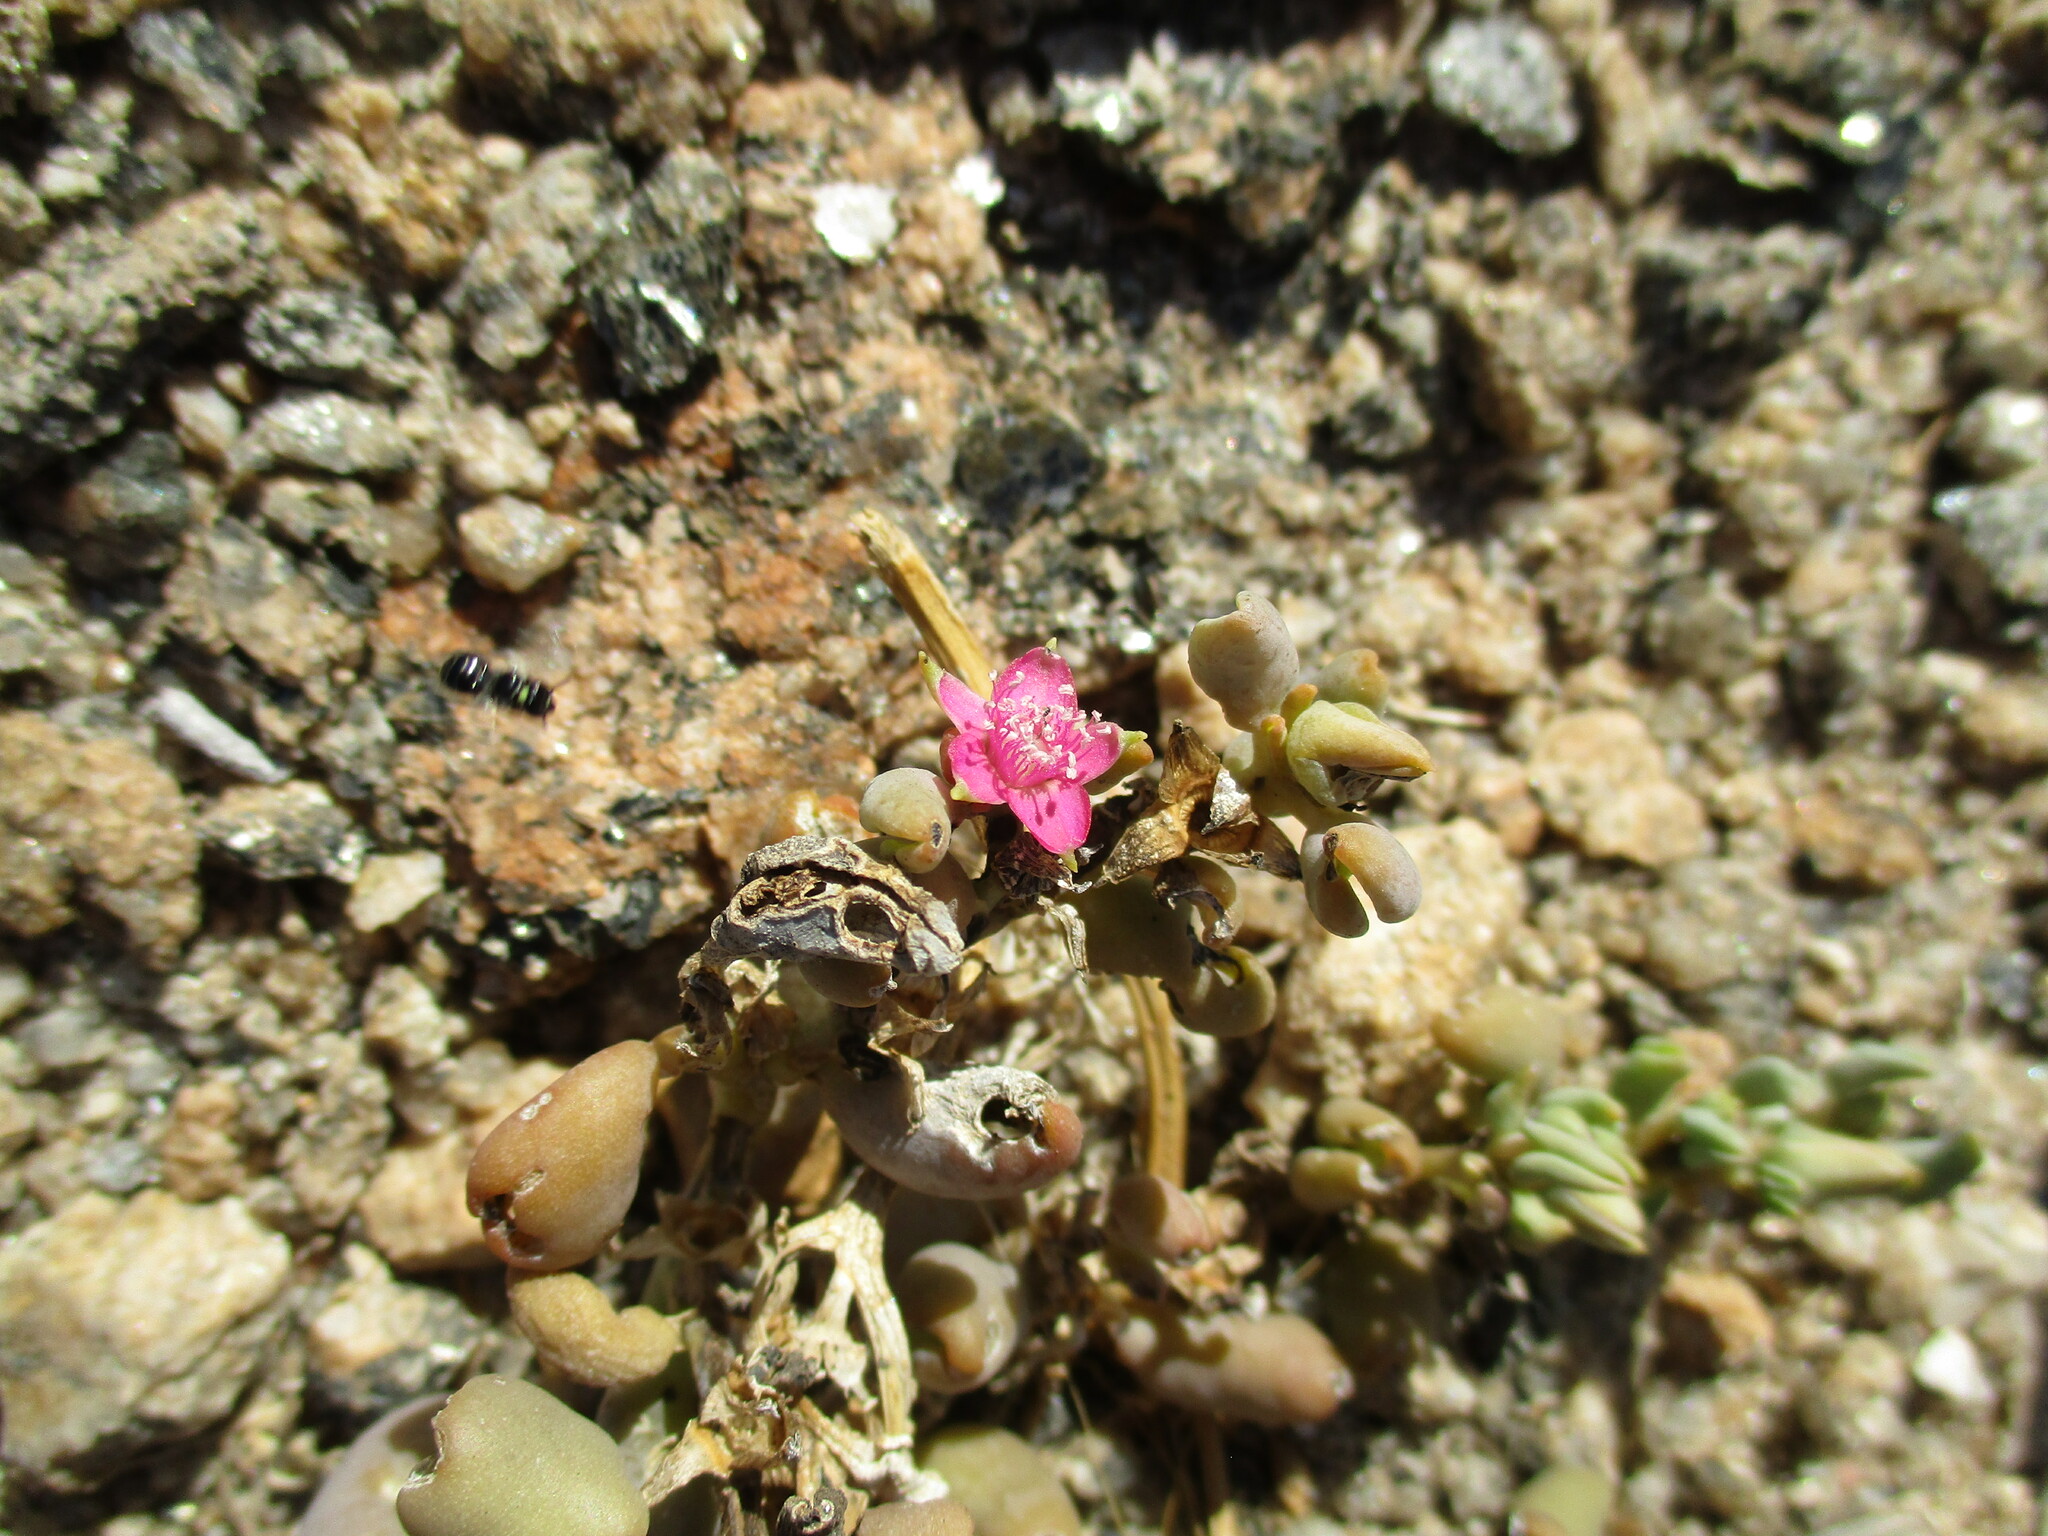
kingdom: Plantae
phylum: Tracheophyta
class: Magnoliopsida
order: Caryophyllales
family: Aizoaceae
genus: Sesuvium
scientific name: Sesuvium sesuvioides
